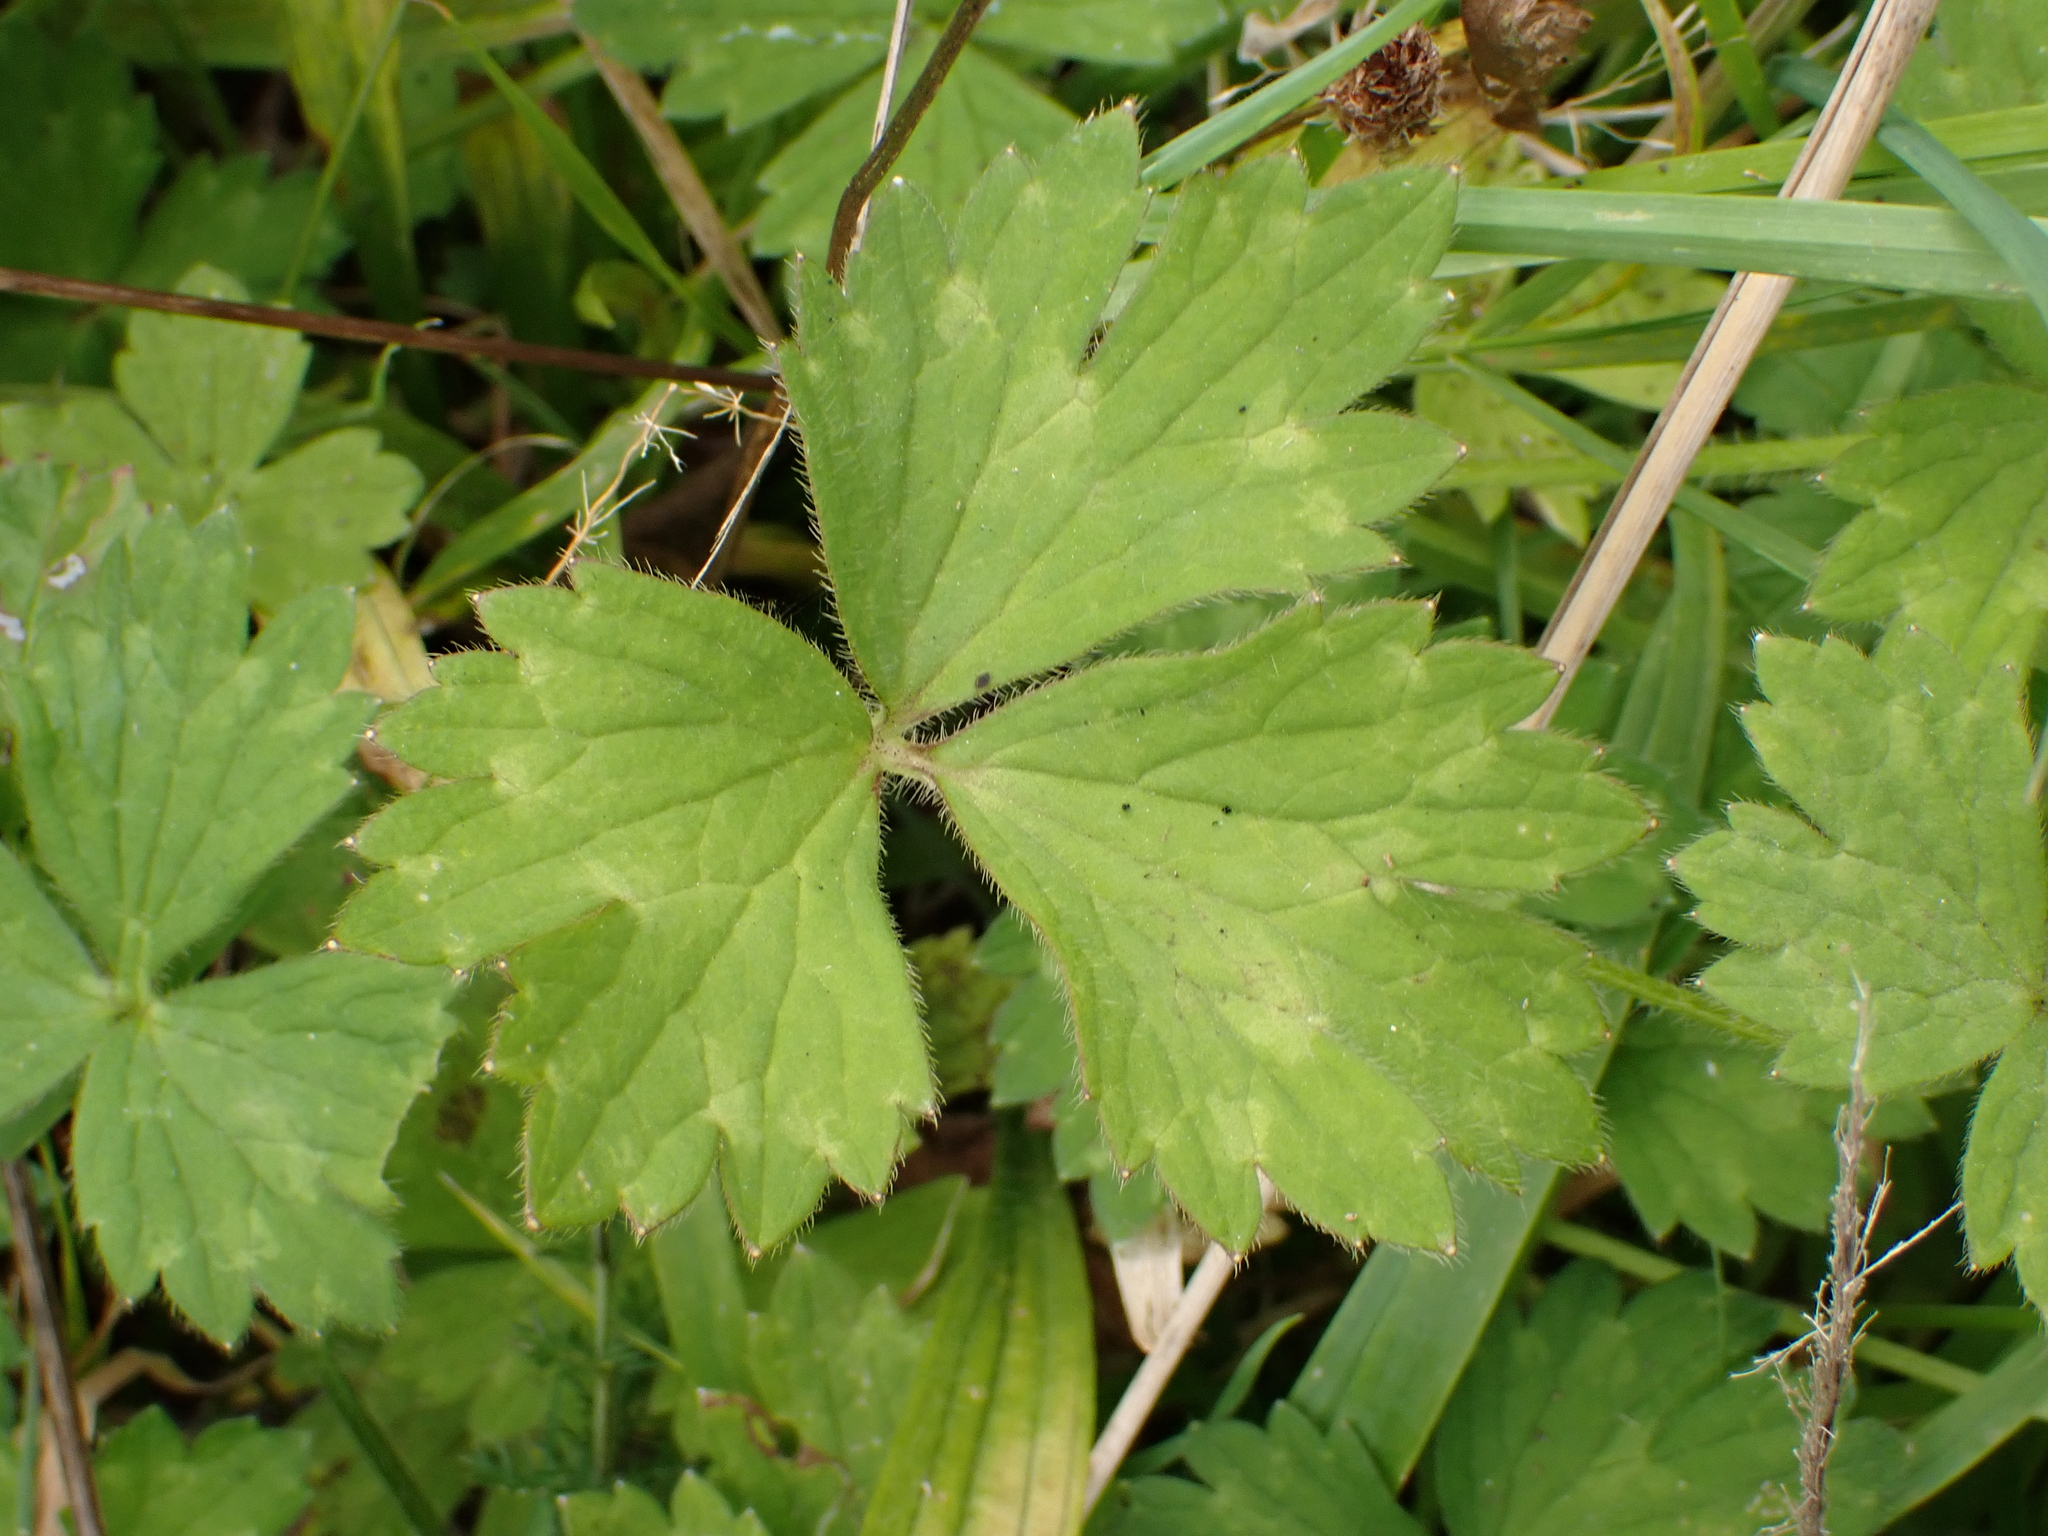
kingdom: Plantae
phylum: Tracheophyta
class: Magnoliopsida
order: Ranunculales
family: Ranunculaceae
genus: Ranunculus
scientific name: Ranunculus repens
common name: Creeping buttercup
